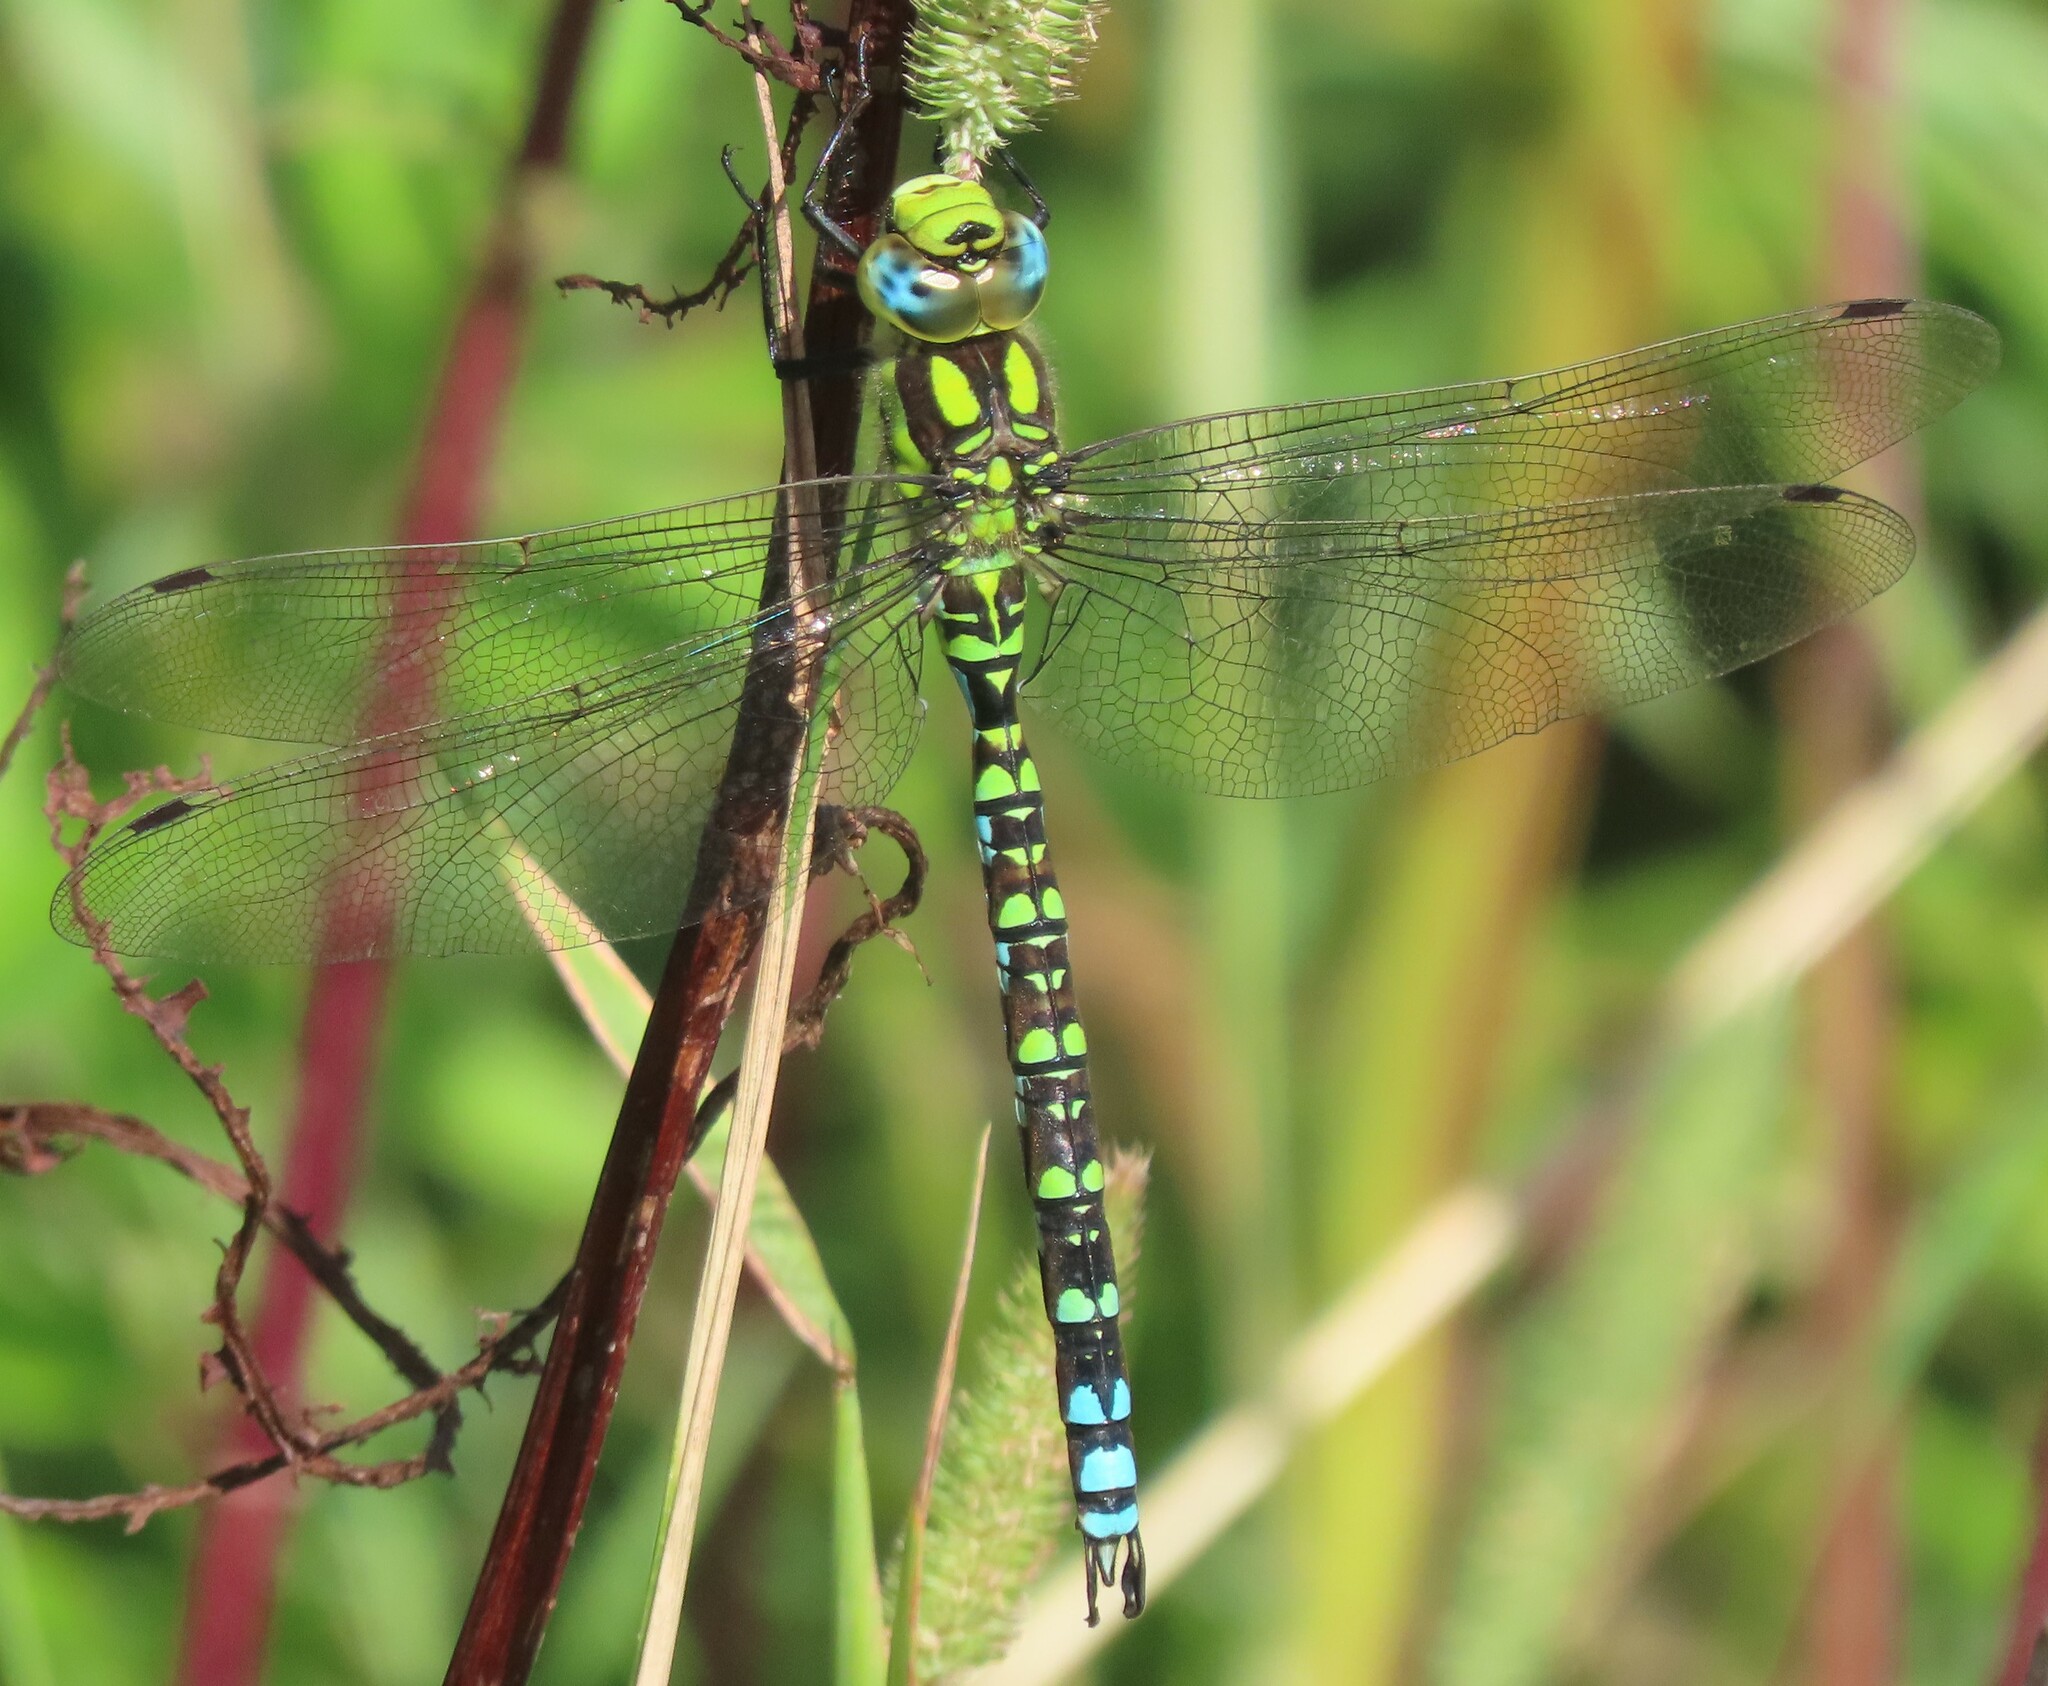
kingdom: Animalia
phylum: Arthropoda
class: Insecta
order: Odonata
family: Aeshnidae
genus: Aeshna
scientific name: Aeshna cyanea
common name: Southern hawker
